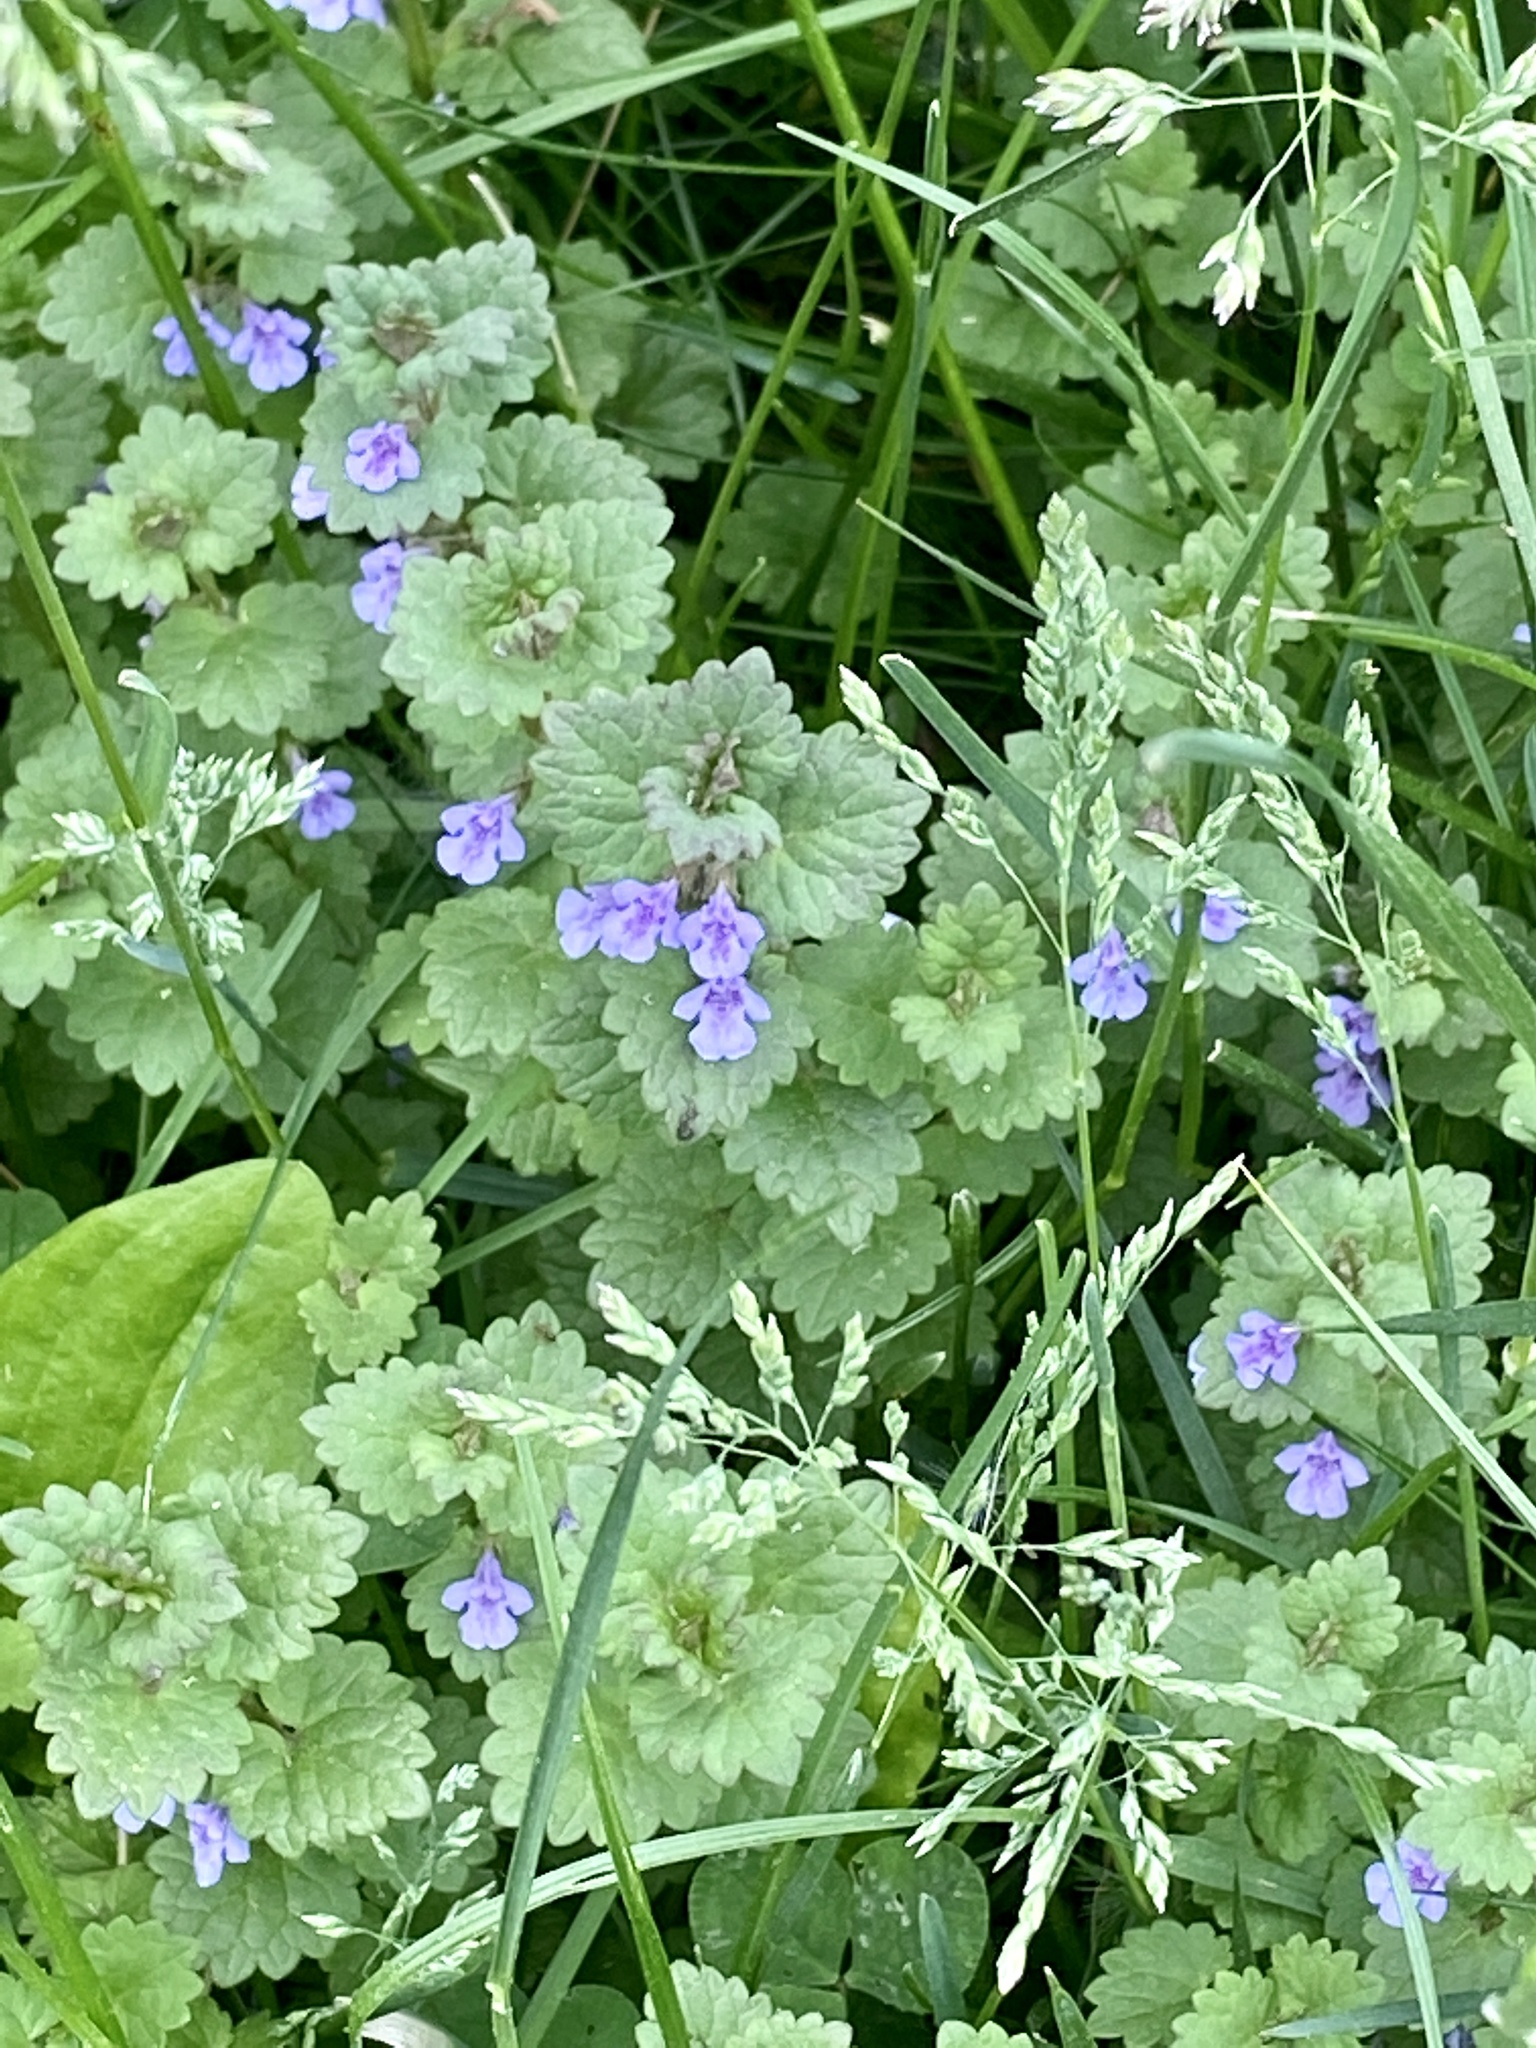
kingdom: Plantae
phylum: Tracheophyta
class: Magnoliopsida
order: Lamiales
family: Lamiaceae
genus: Glechoma
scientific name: Glechoma hederacea
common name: Ground ivy
